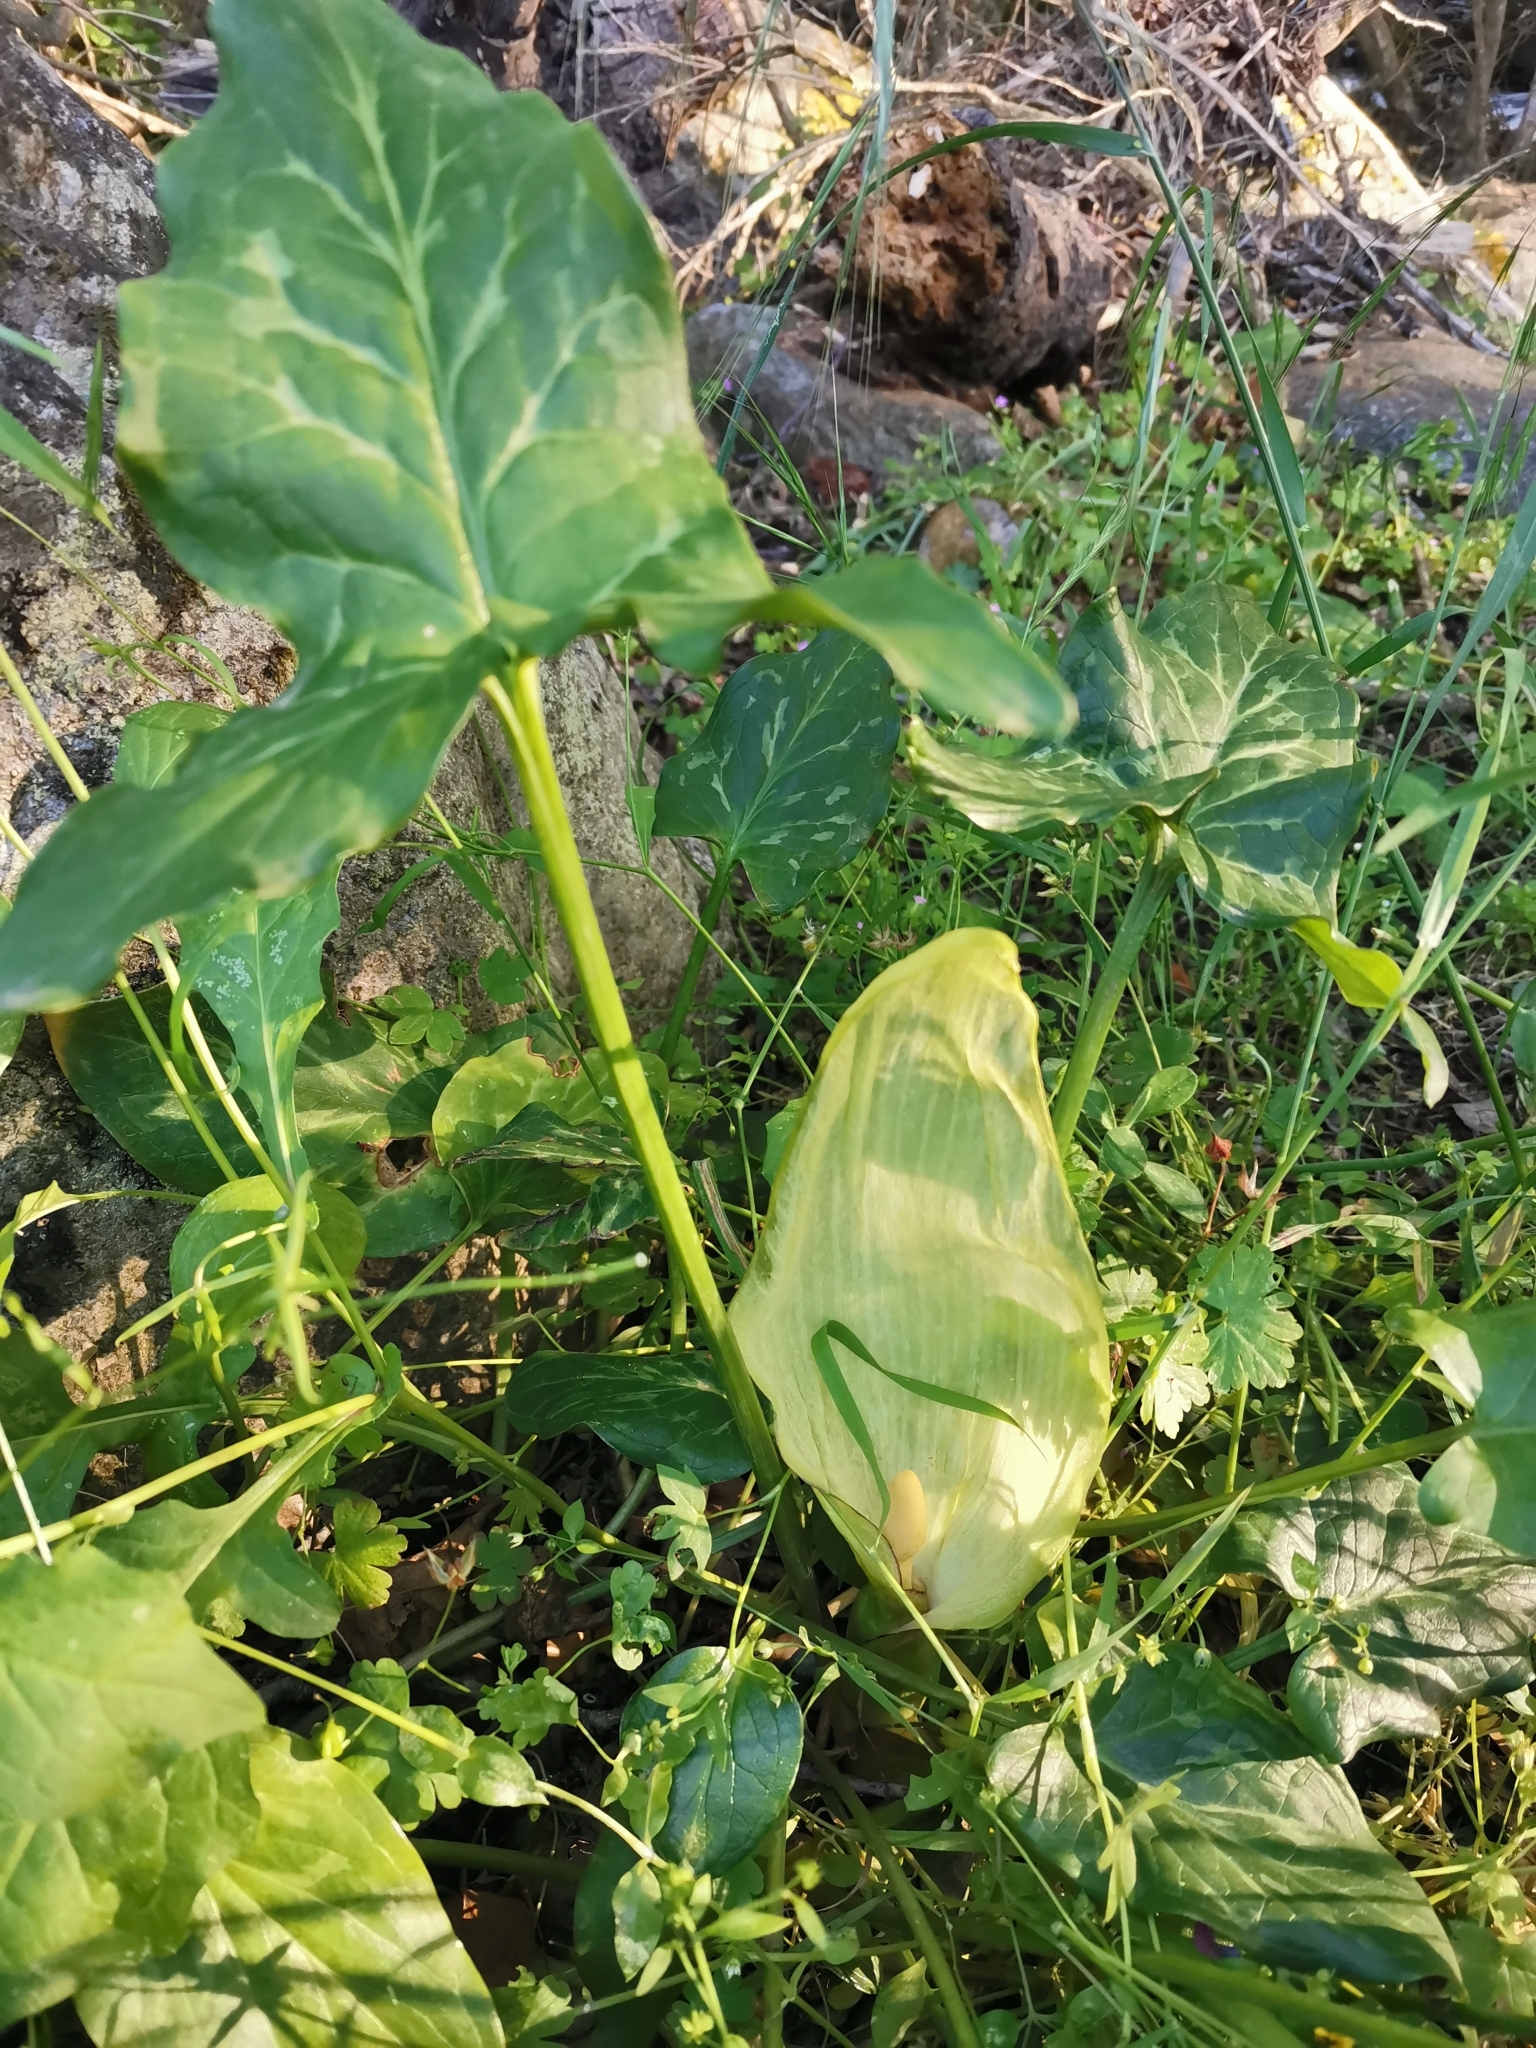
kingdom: Plantae
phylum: Tracheophyta
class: Liliopsida
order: Alismatales
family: Araceae
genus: Arum
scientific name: Arum italicum
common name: Italian lords-and-ladies
